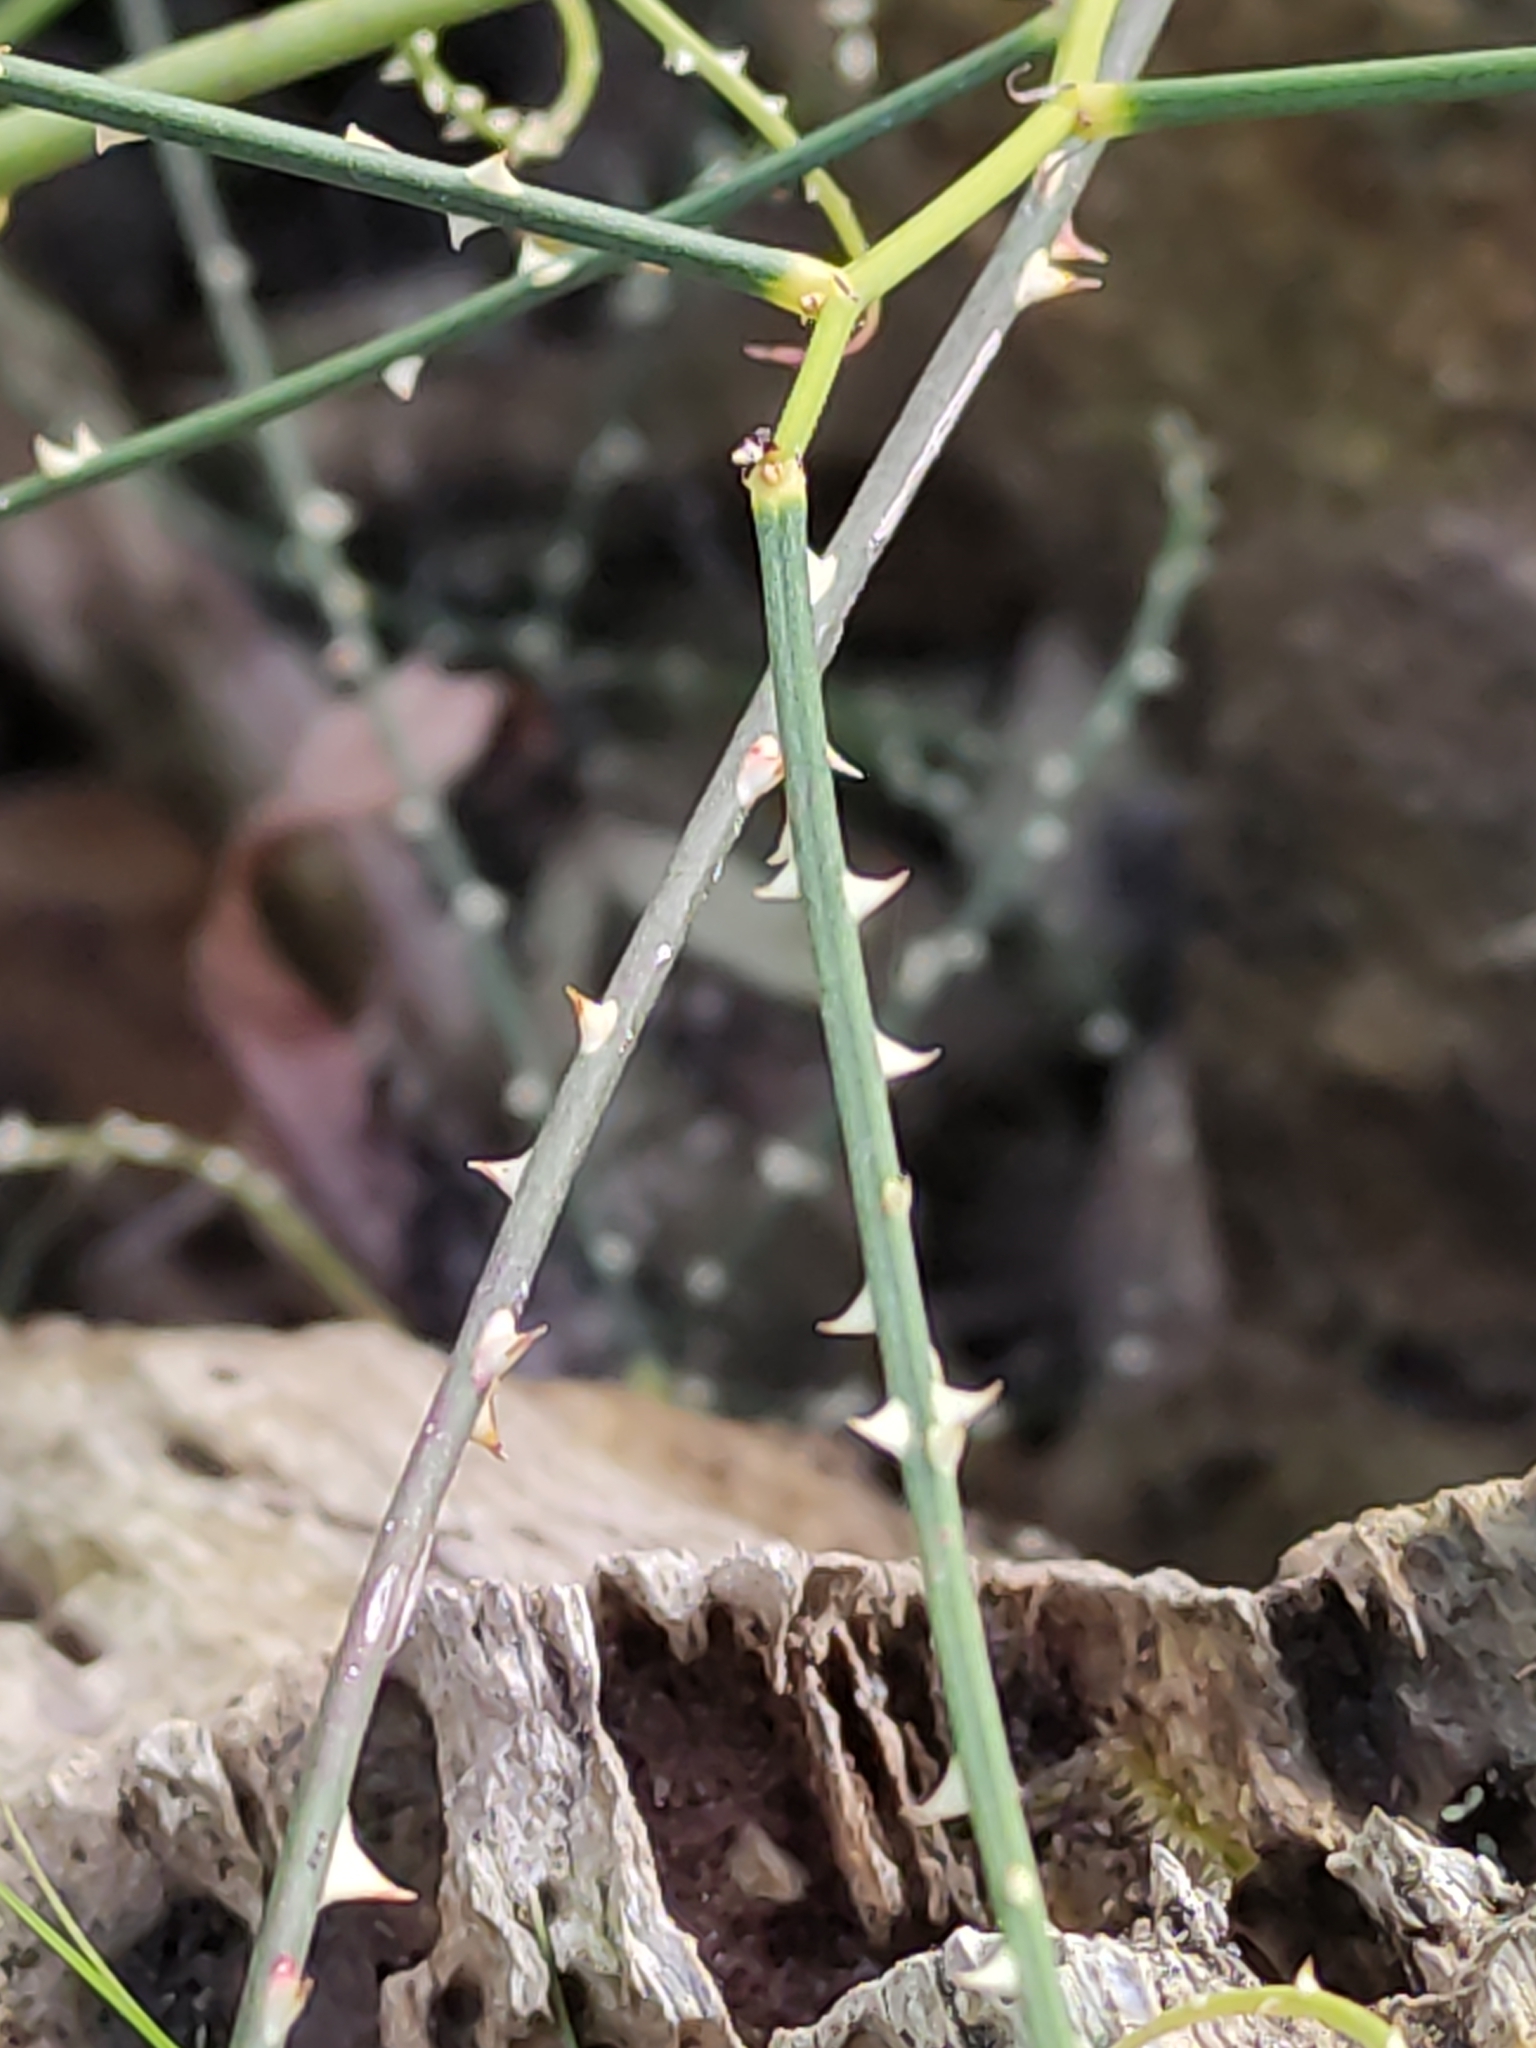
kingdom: Plantae
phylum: Tracheophyta
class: Magnoliopsida
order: Rosales
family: Rosaceae
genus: Rubus
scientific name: Rubus squarrosus
